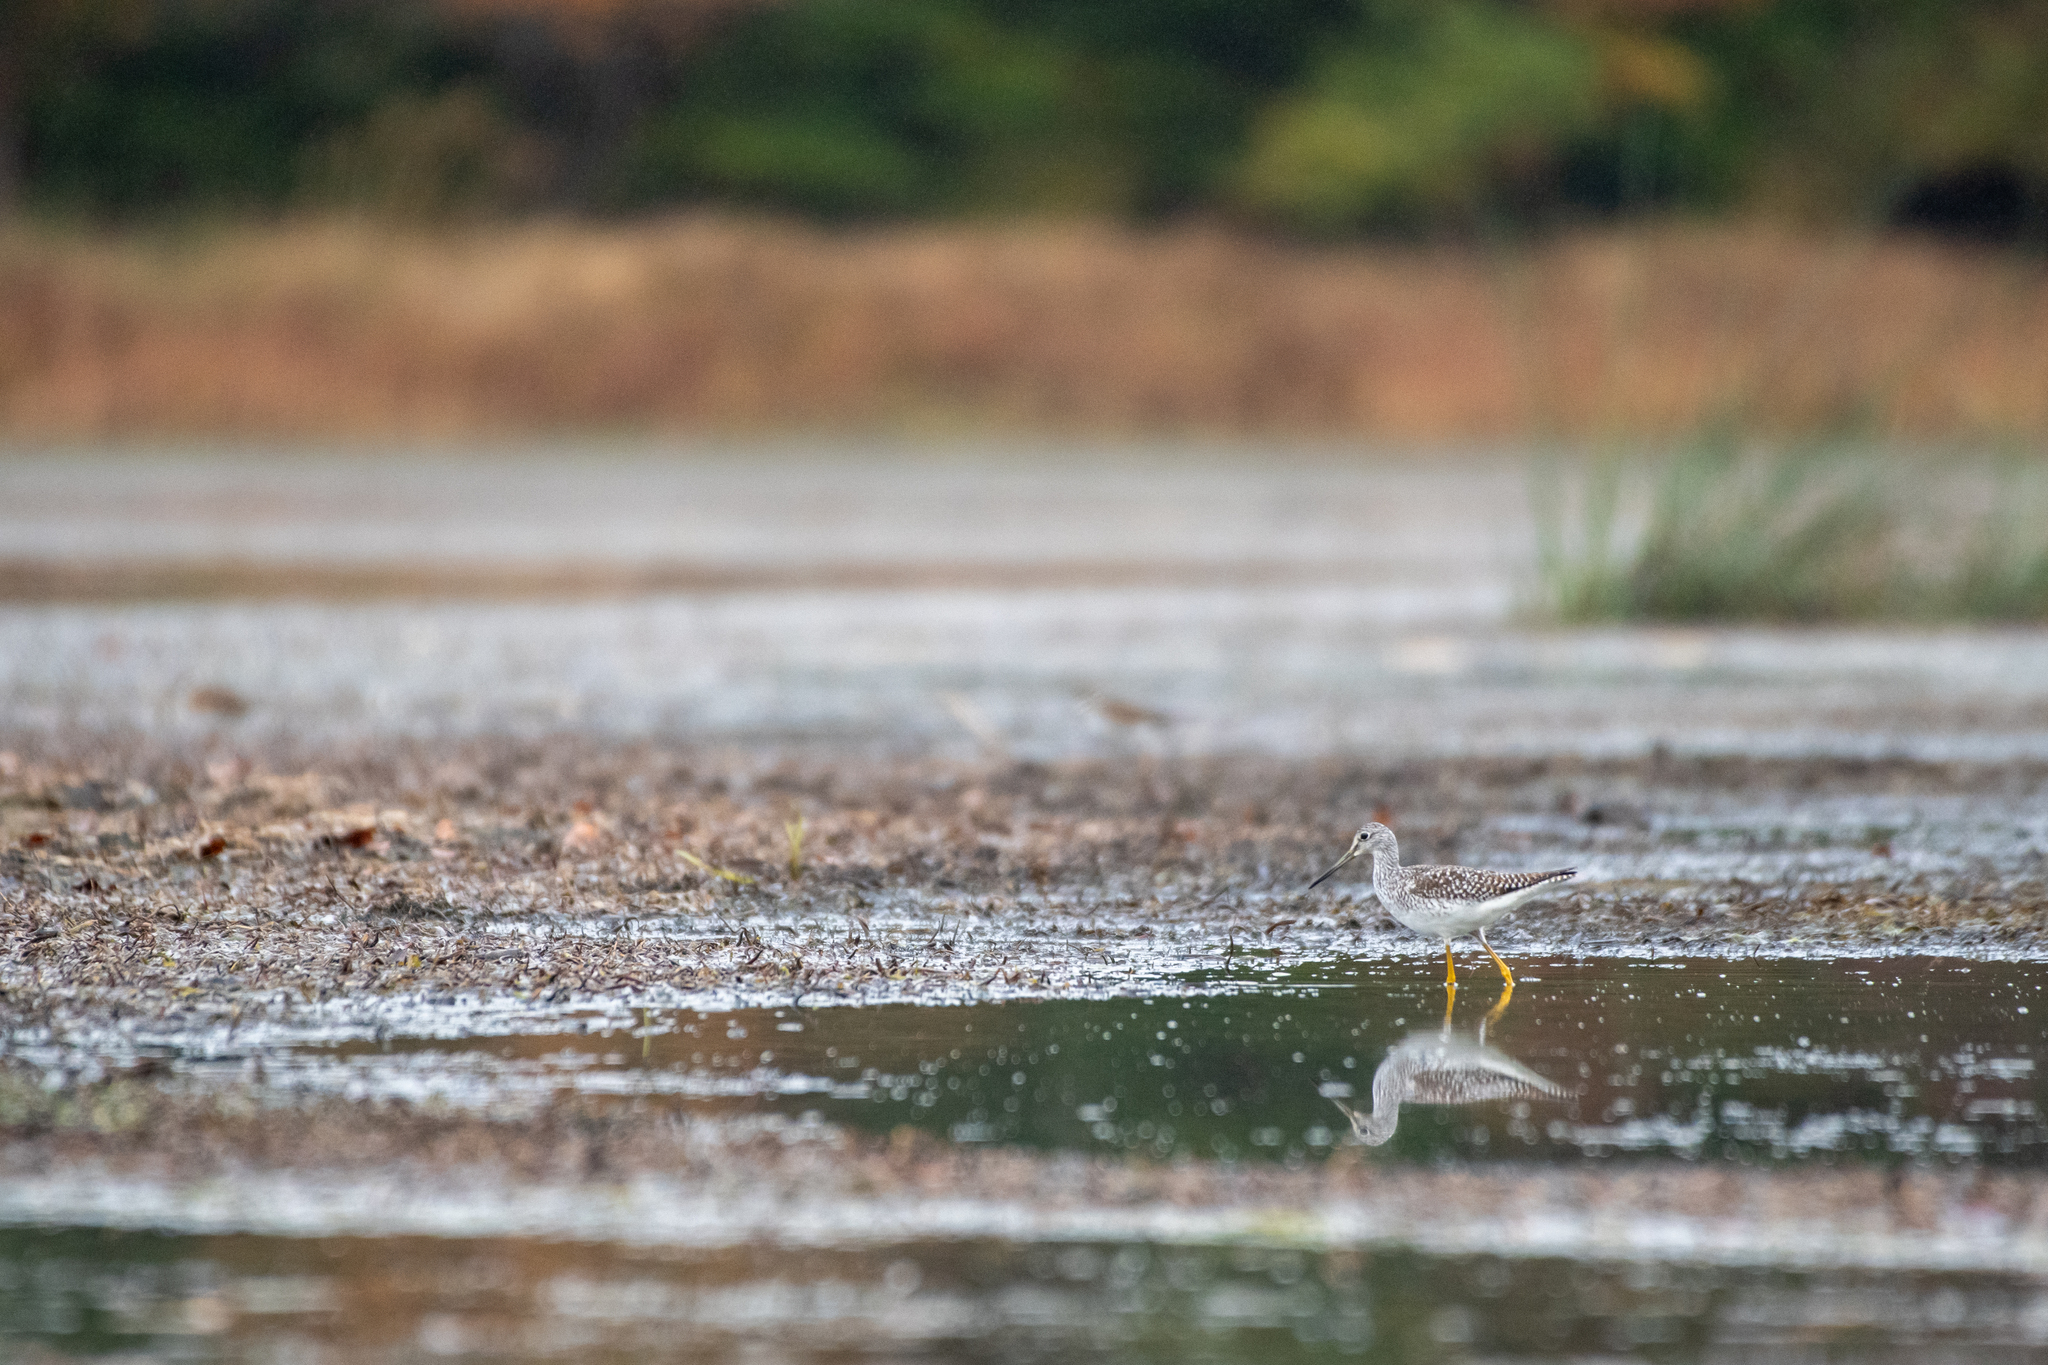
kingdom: Animalia
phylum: Chordata
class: Aves
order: Charadriiformes
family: Scolopacidae
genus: Tringa
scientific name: Tringa melanoleuca
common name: Greater yellowlegs
